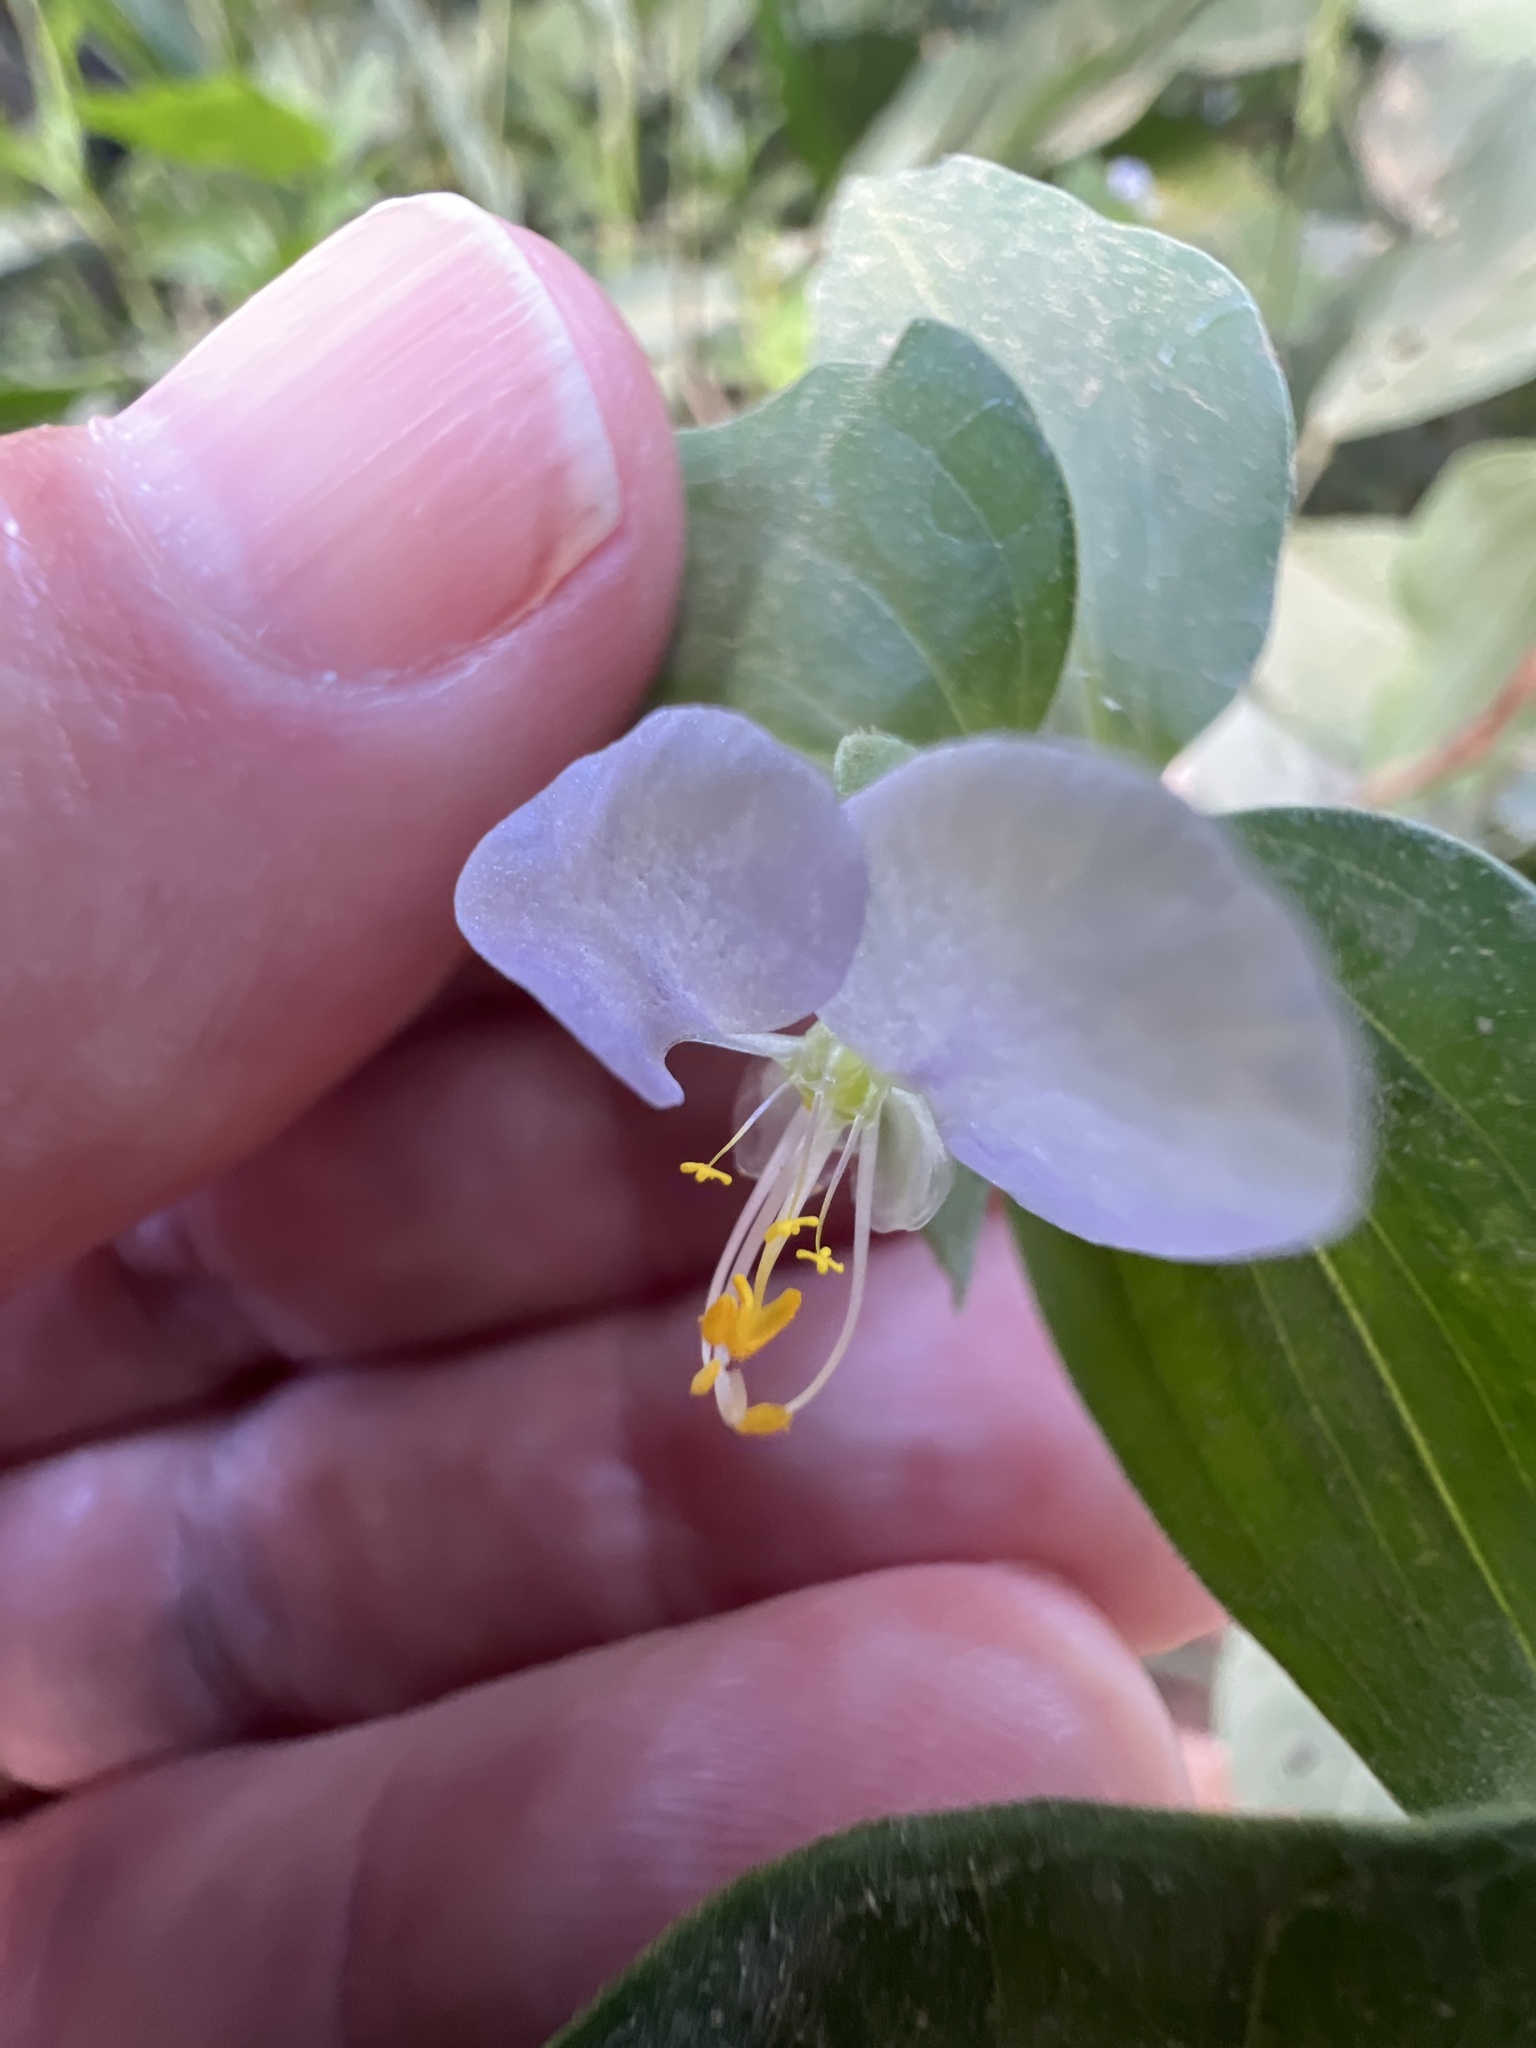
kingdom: Plantae
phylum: Tracheophyta
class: Liliopsida
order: Commelinales
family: Commelinaceae
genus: Commelina
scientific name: Commelina erecta
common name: Blousel blommetjie
